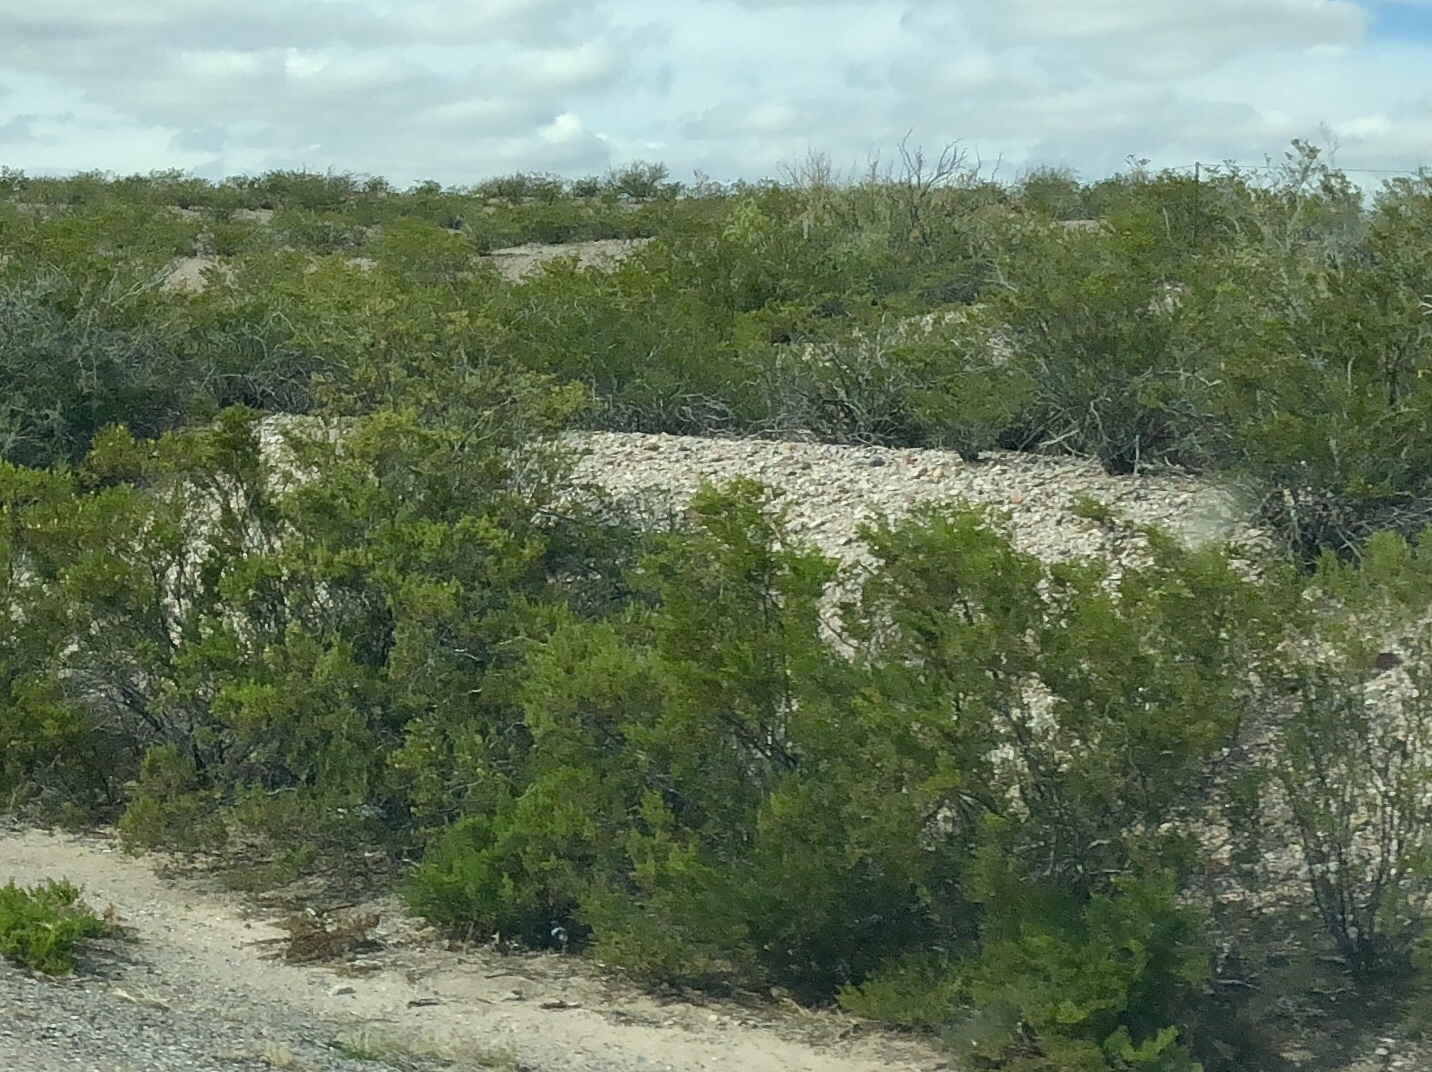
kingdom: Plantae
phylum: Tracheophyta
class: Magnoliopsida
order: Zygophyllales
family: Zygophyllaceae
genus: Larrea
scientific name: Larrea tridentata
